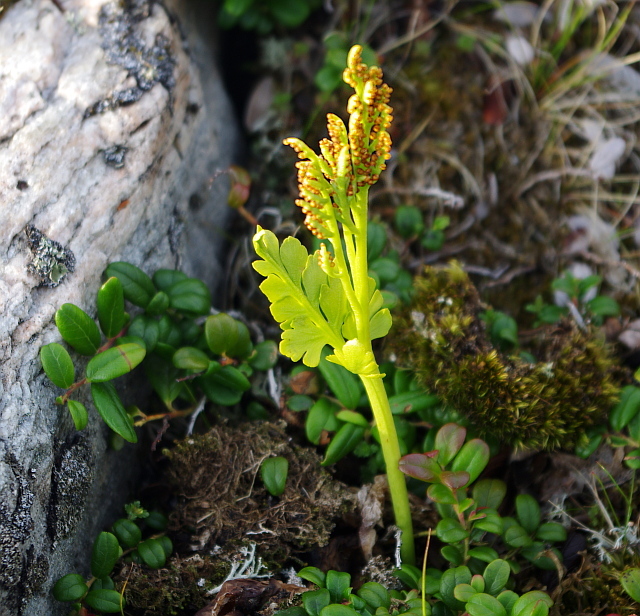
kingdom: Plantae
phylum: Tracheophyta
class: Polypodiopsida
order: Ophioglossales
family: Ophioglossaceae
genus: Botrychium
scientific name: Botrychium boreale
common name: Boreal moonwort
